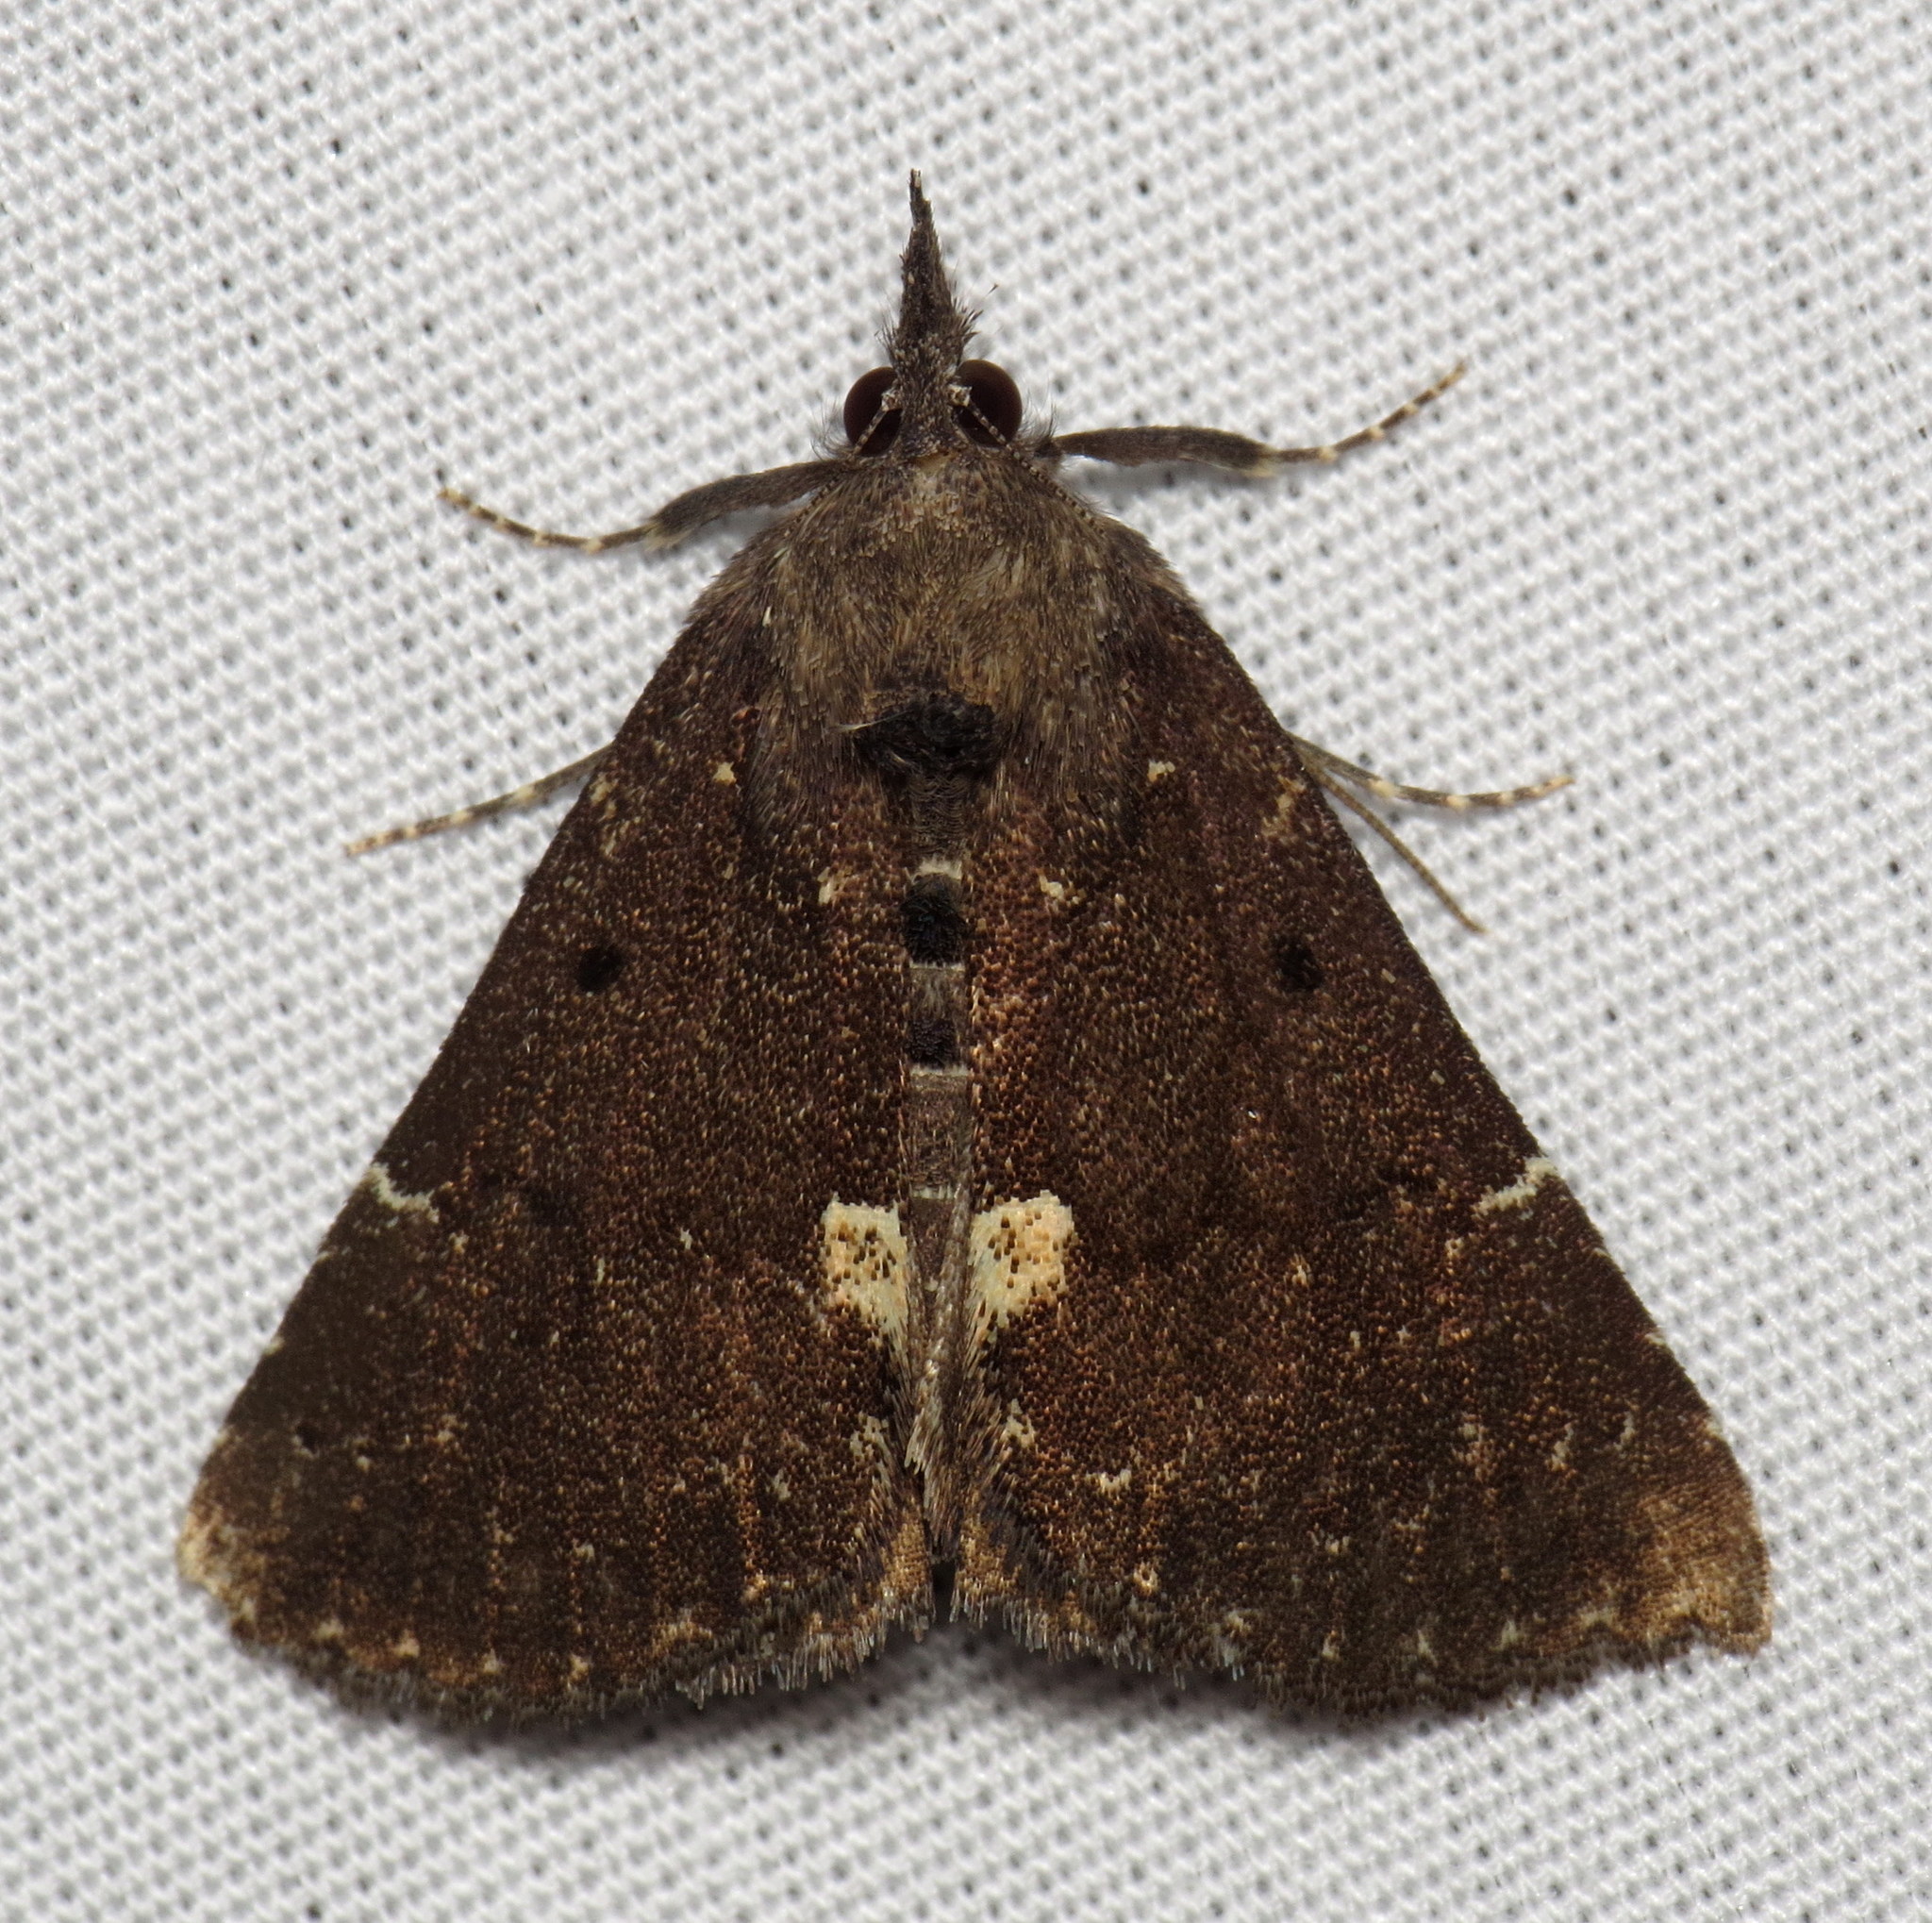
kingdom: Animalia
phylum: Arthropoda
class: Insecta
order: Lepidoptera
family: Erebidae
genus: Hypena
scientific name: Hypena bijugalis
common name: Dimorphic bomolocha moth
